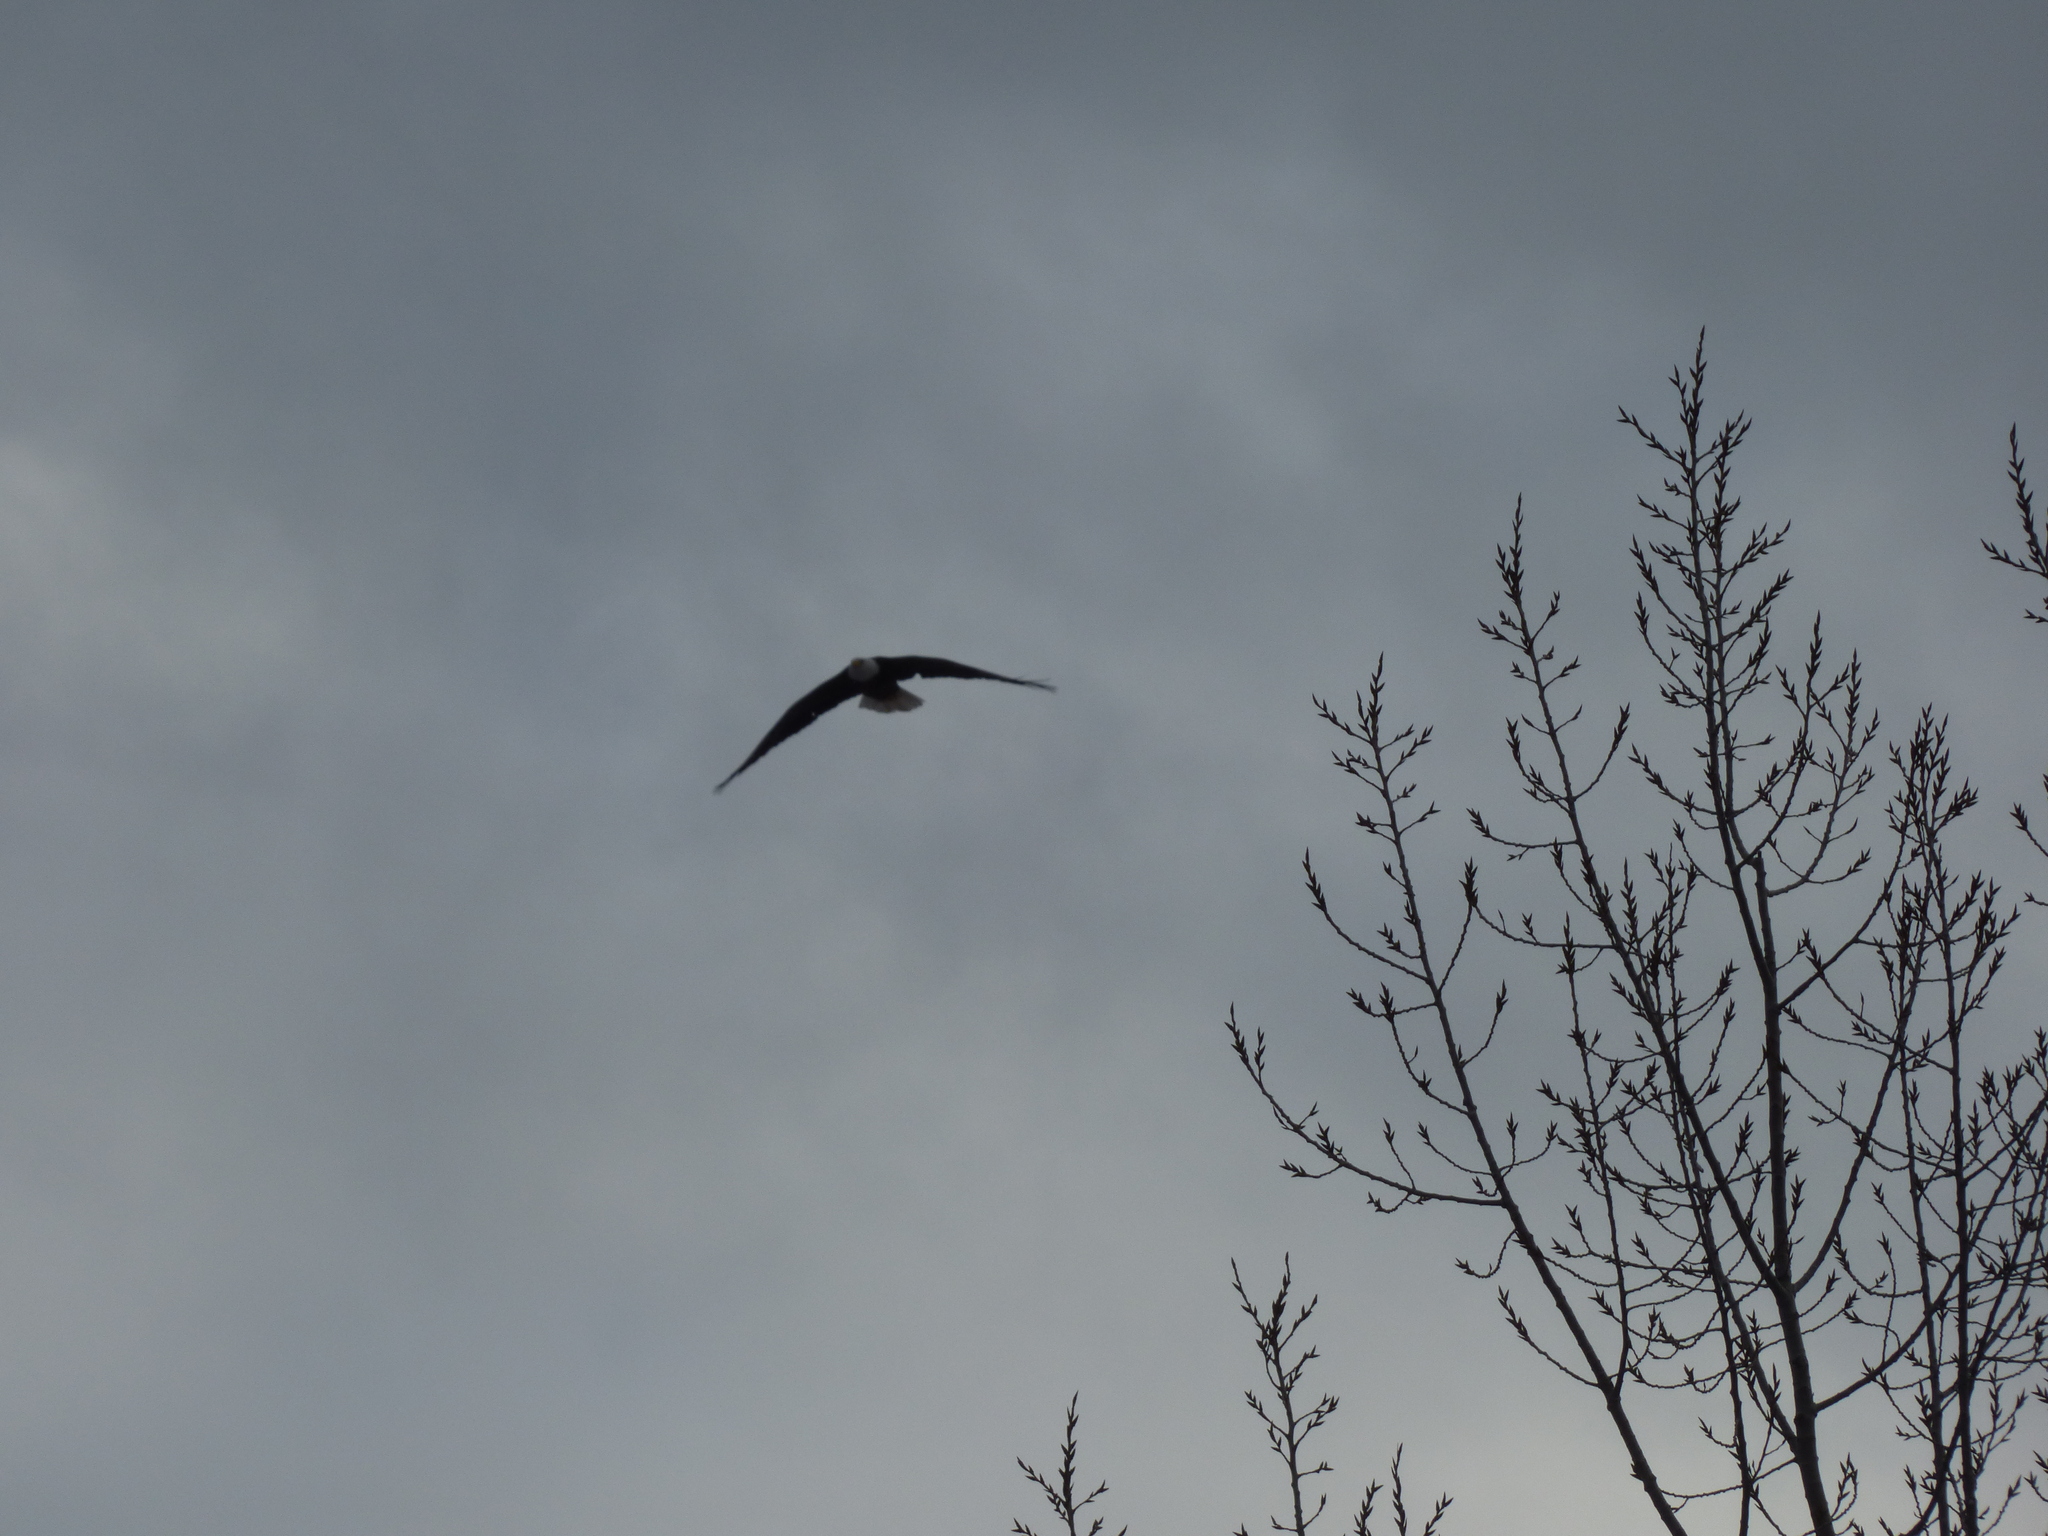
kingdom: Animalia
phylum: Chordata
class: Aves
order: Accipitriformes
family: Accipitridae
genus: Haliaeetus
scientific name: Haliaeetus leucocephalus
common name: Bald eagle
